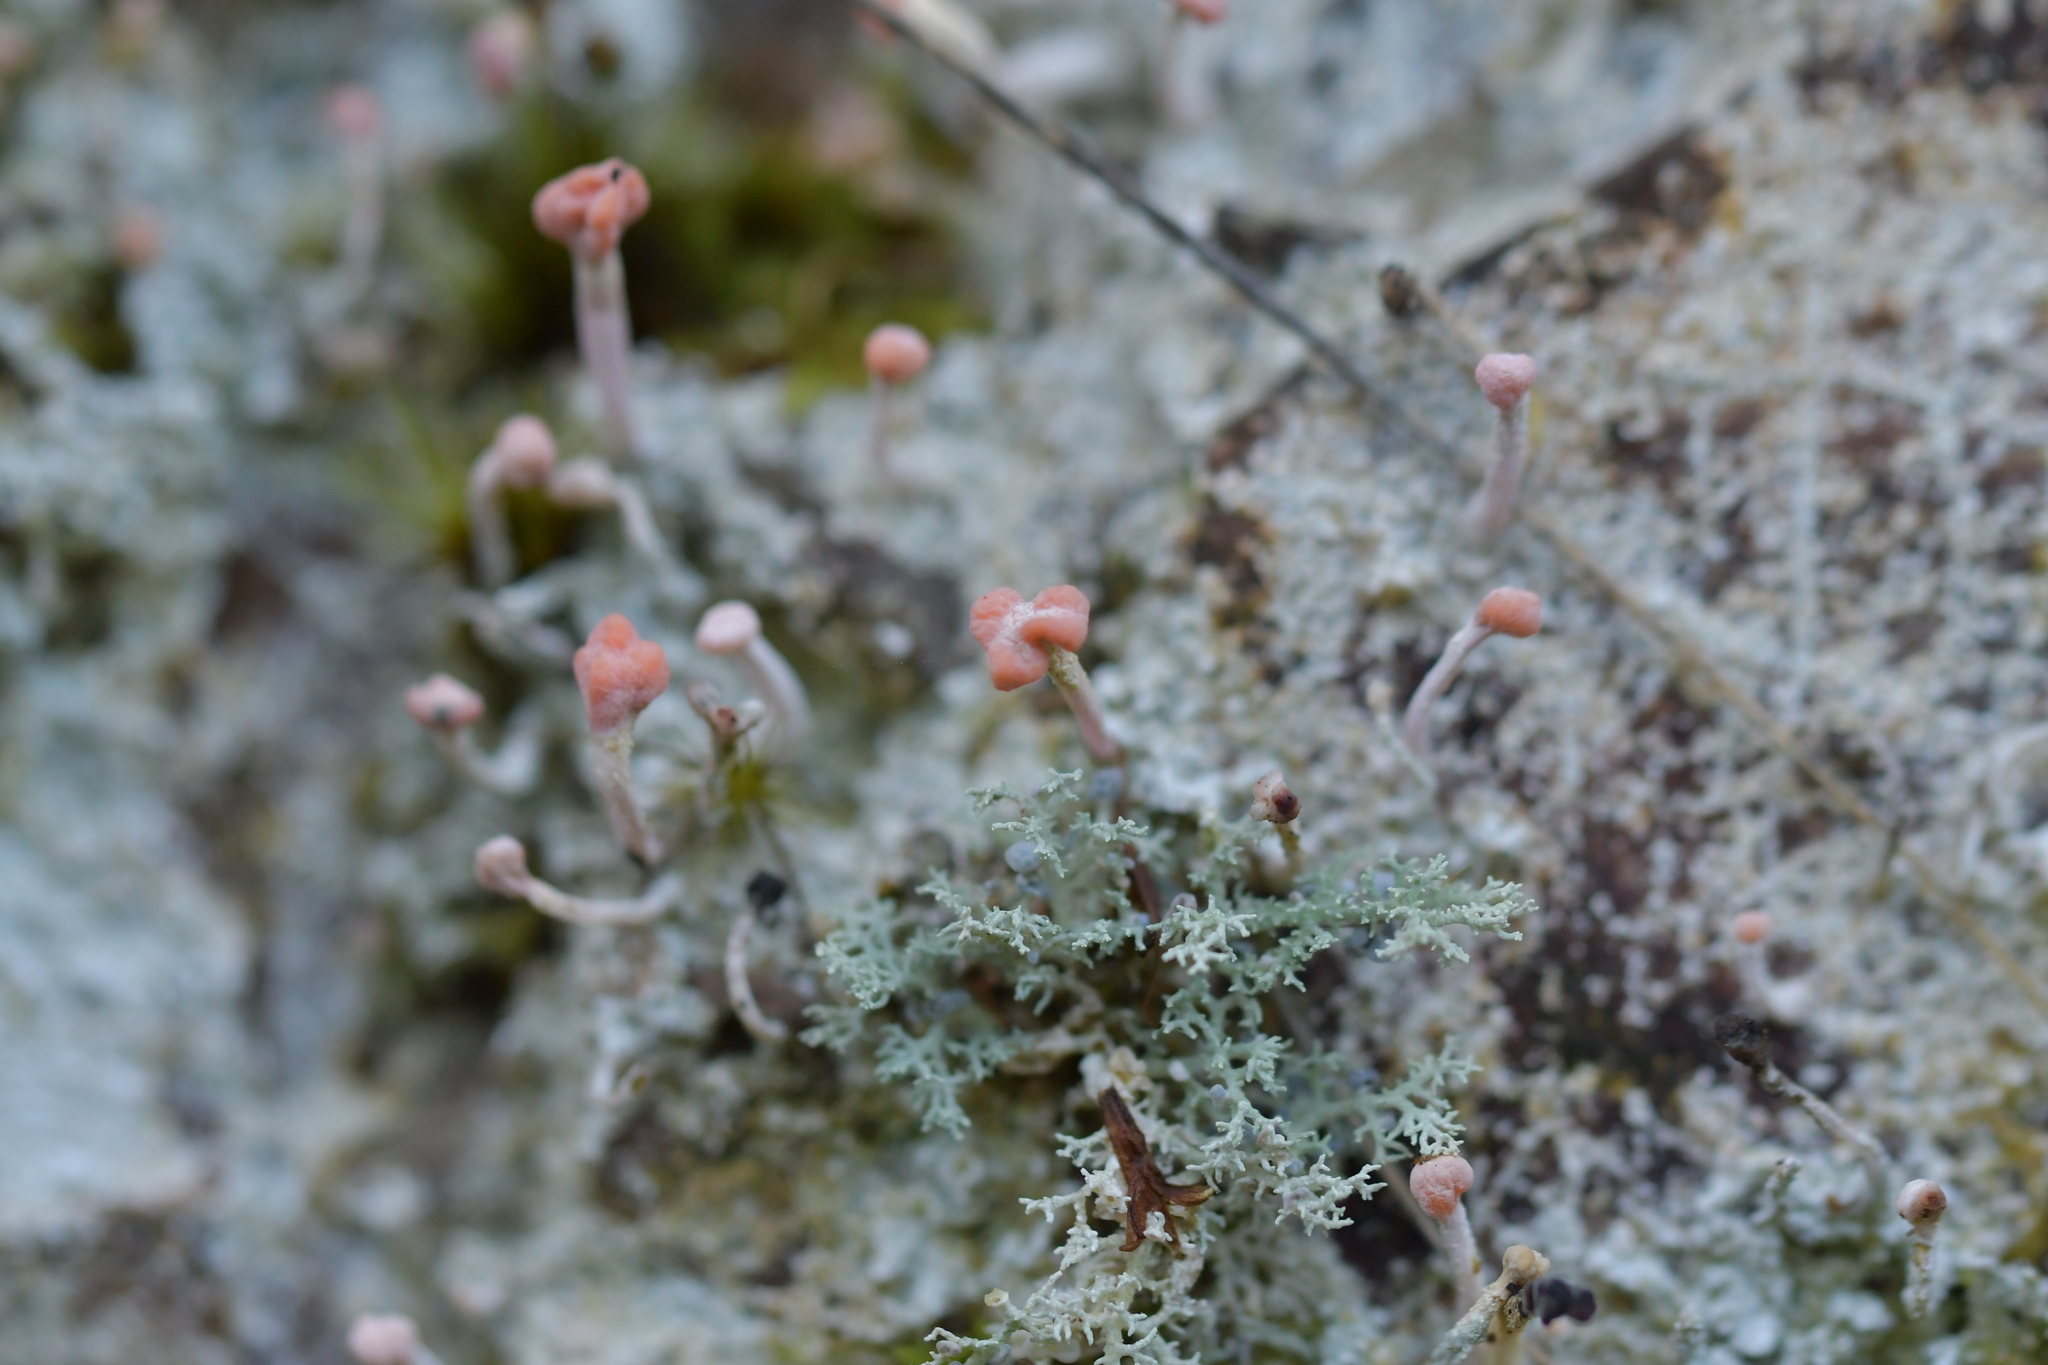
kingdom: Fungi
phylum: Ascomycota
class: Lecanoromycetes
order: Pertusariales
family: Icmadophilaceae
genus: Dibaeis
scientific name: Dibaeis arcuata
